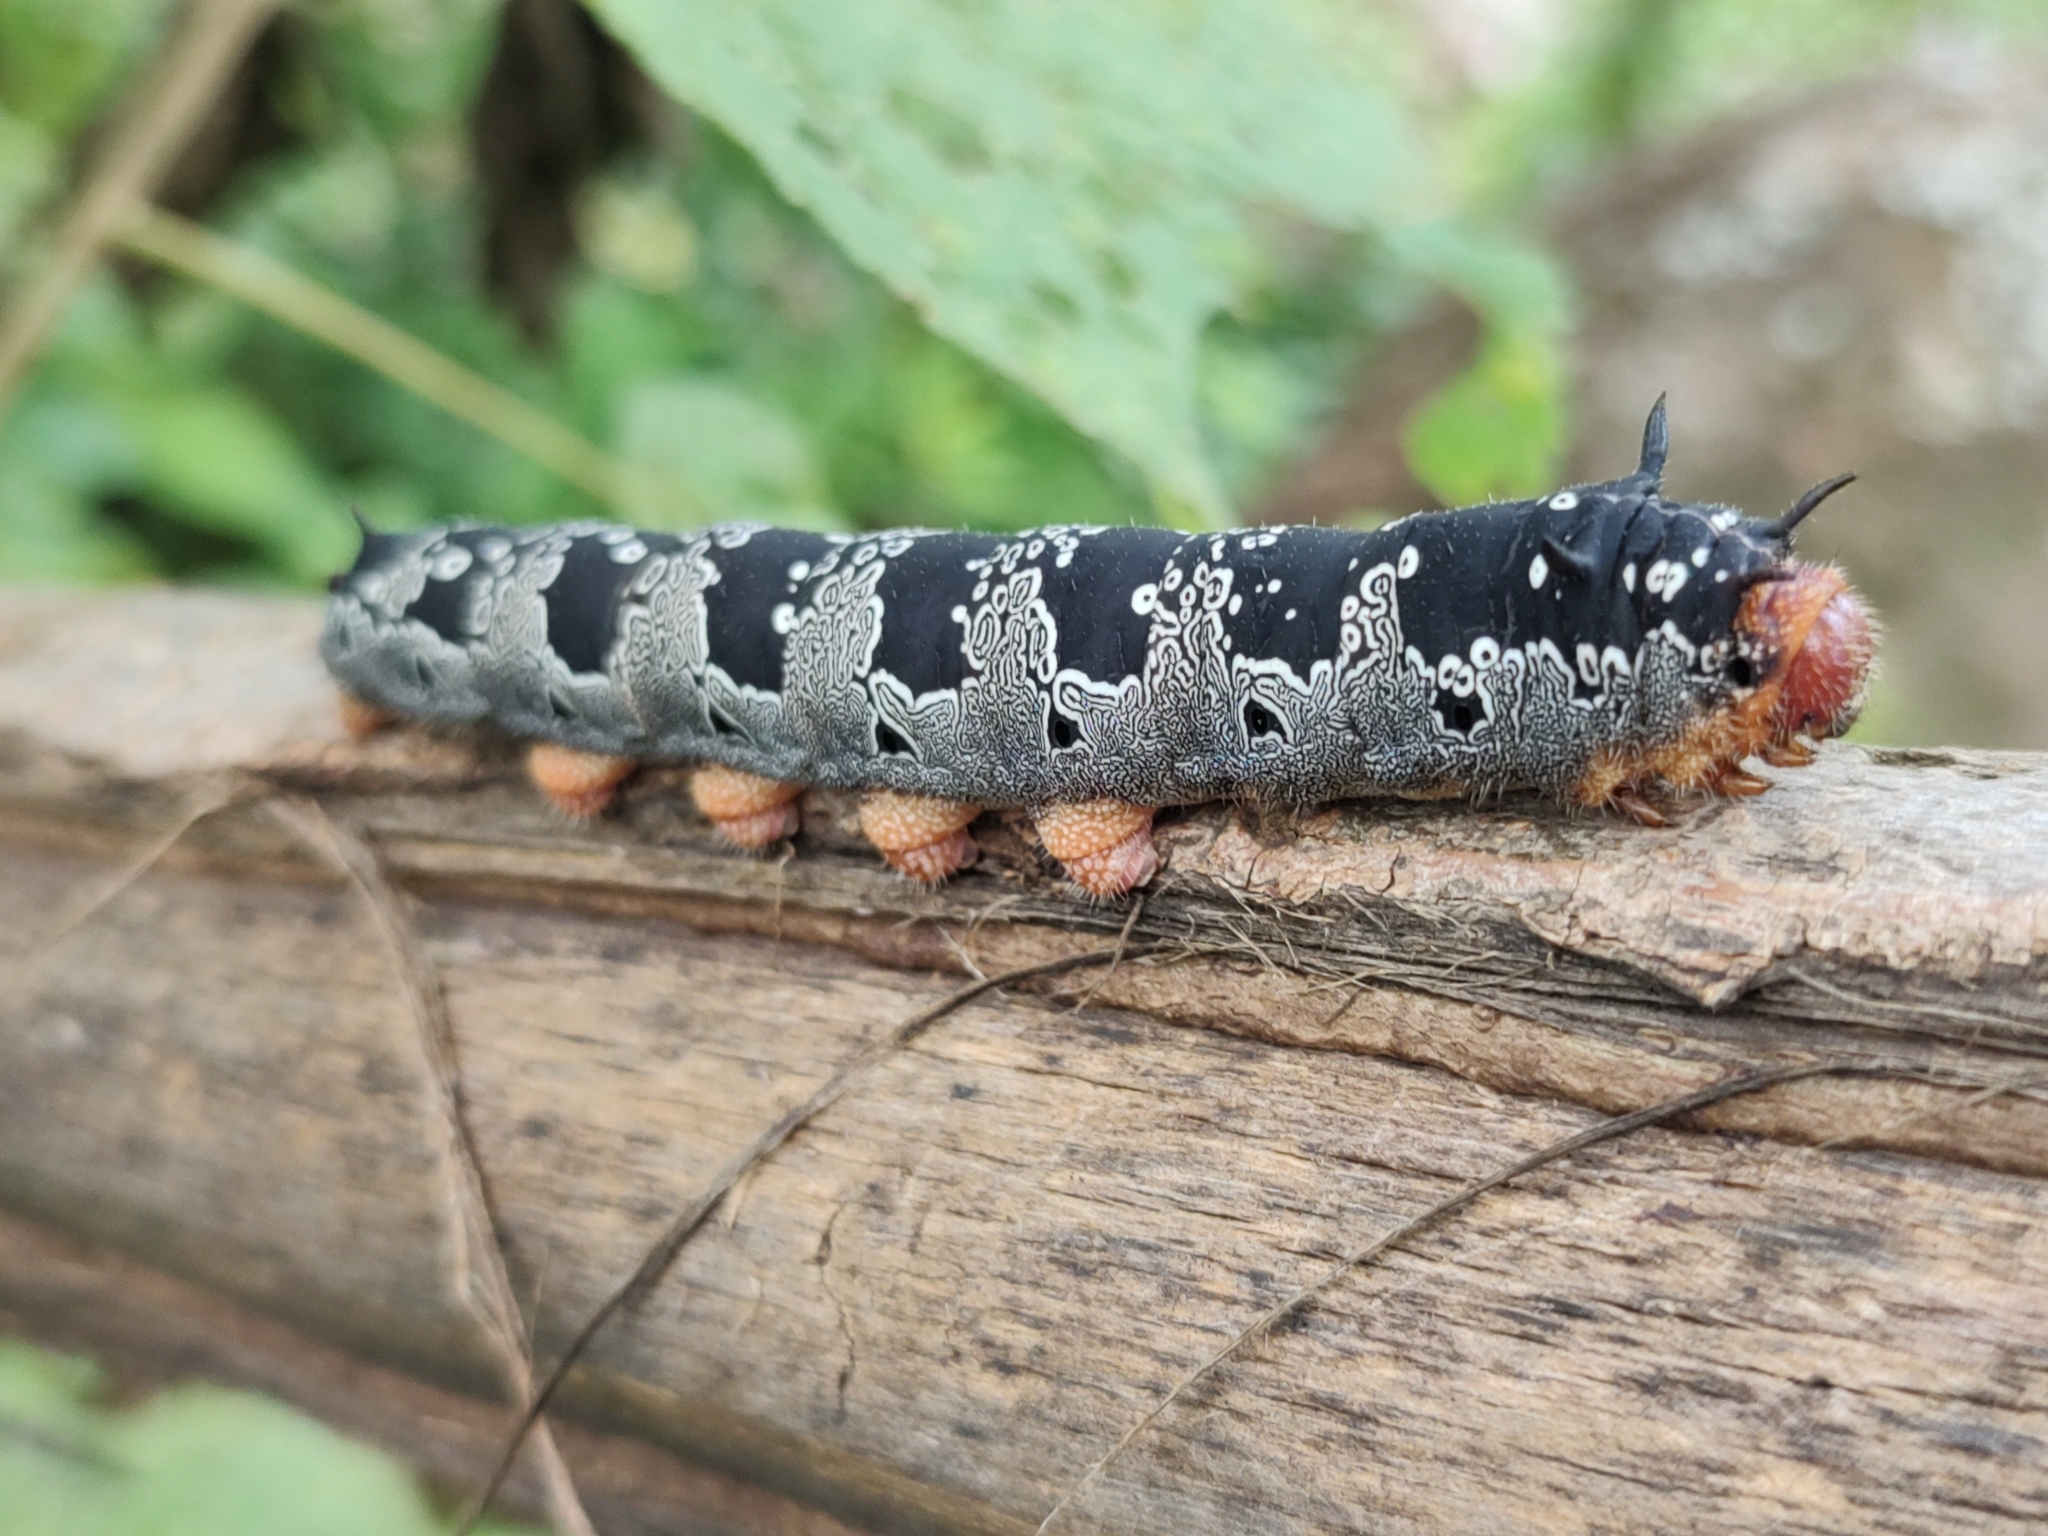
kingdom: Animalia
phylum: Arthropoda
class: Insecta
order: Lepidoptera
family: Saturniidae
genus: Arsenura
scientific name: Arsenura polyodonta
